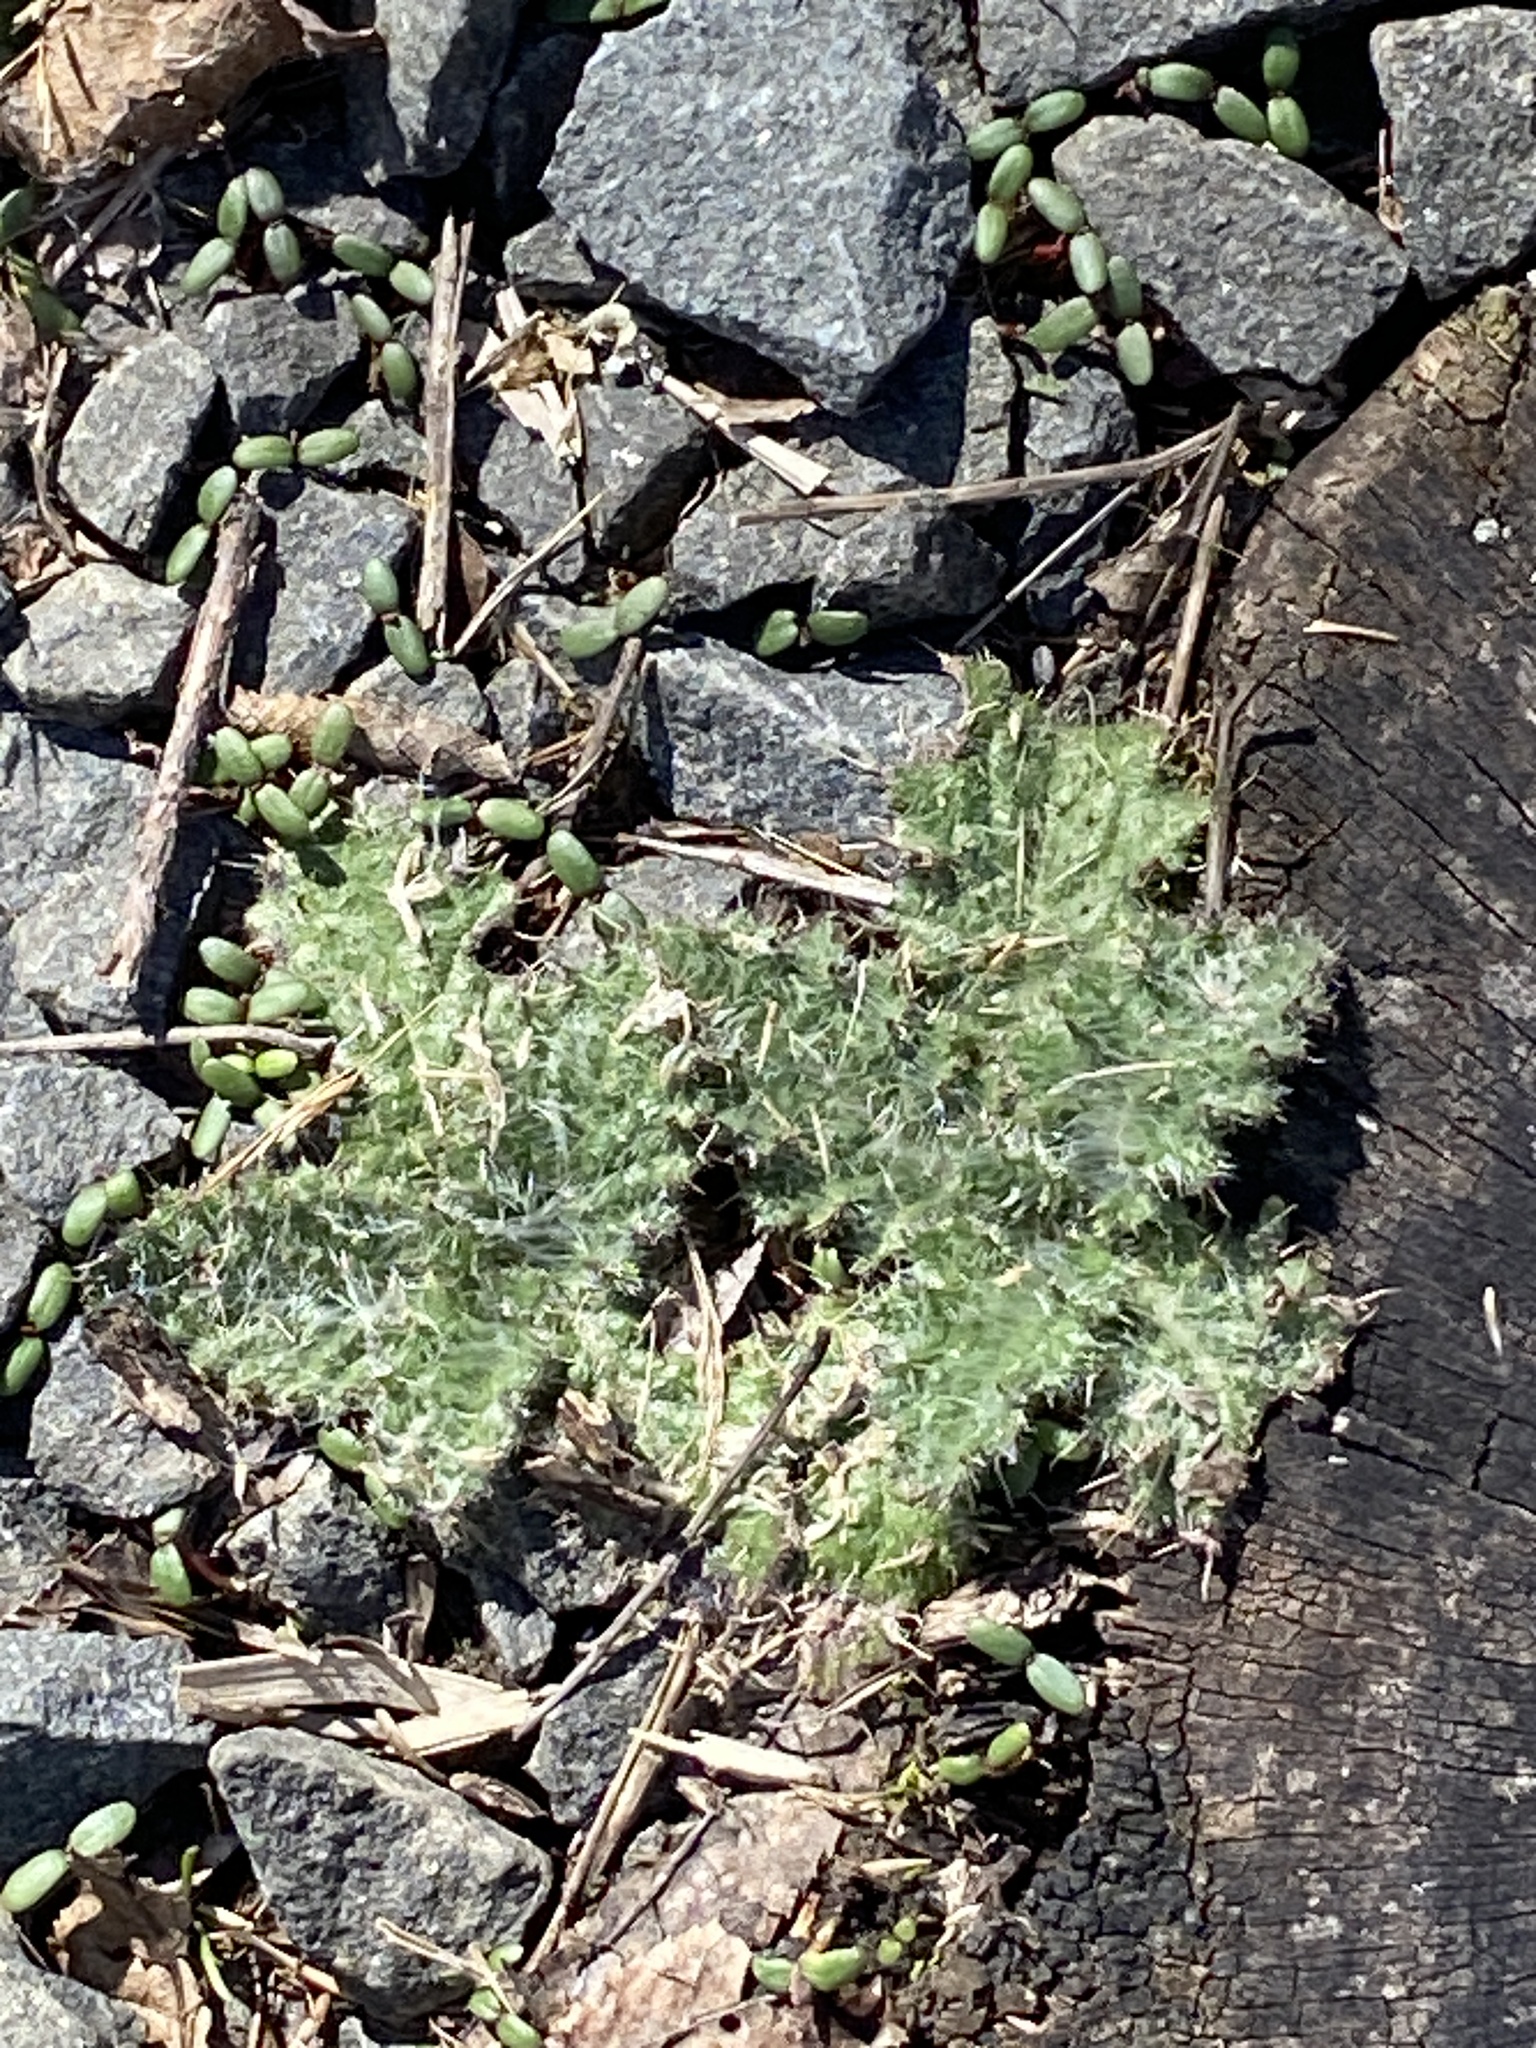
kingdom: Plantae
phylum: Tracheophyta
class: Magnoliopsida
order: Asterales
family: Asteraceae
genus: Cirsium
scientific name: Cirsium vulgare
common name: Bull thistle
